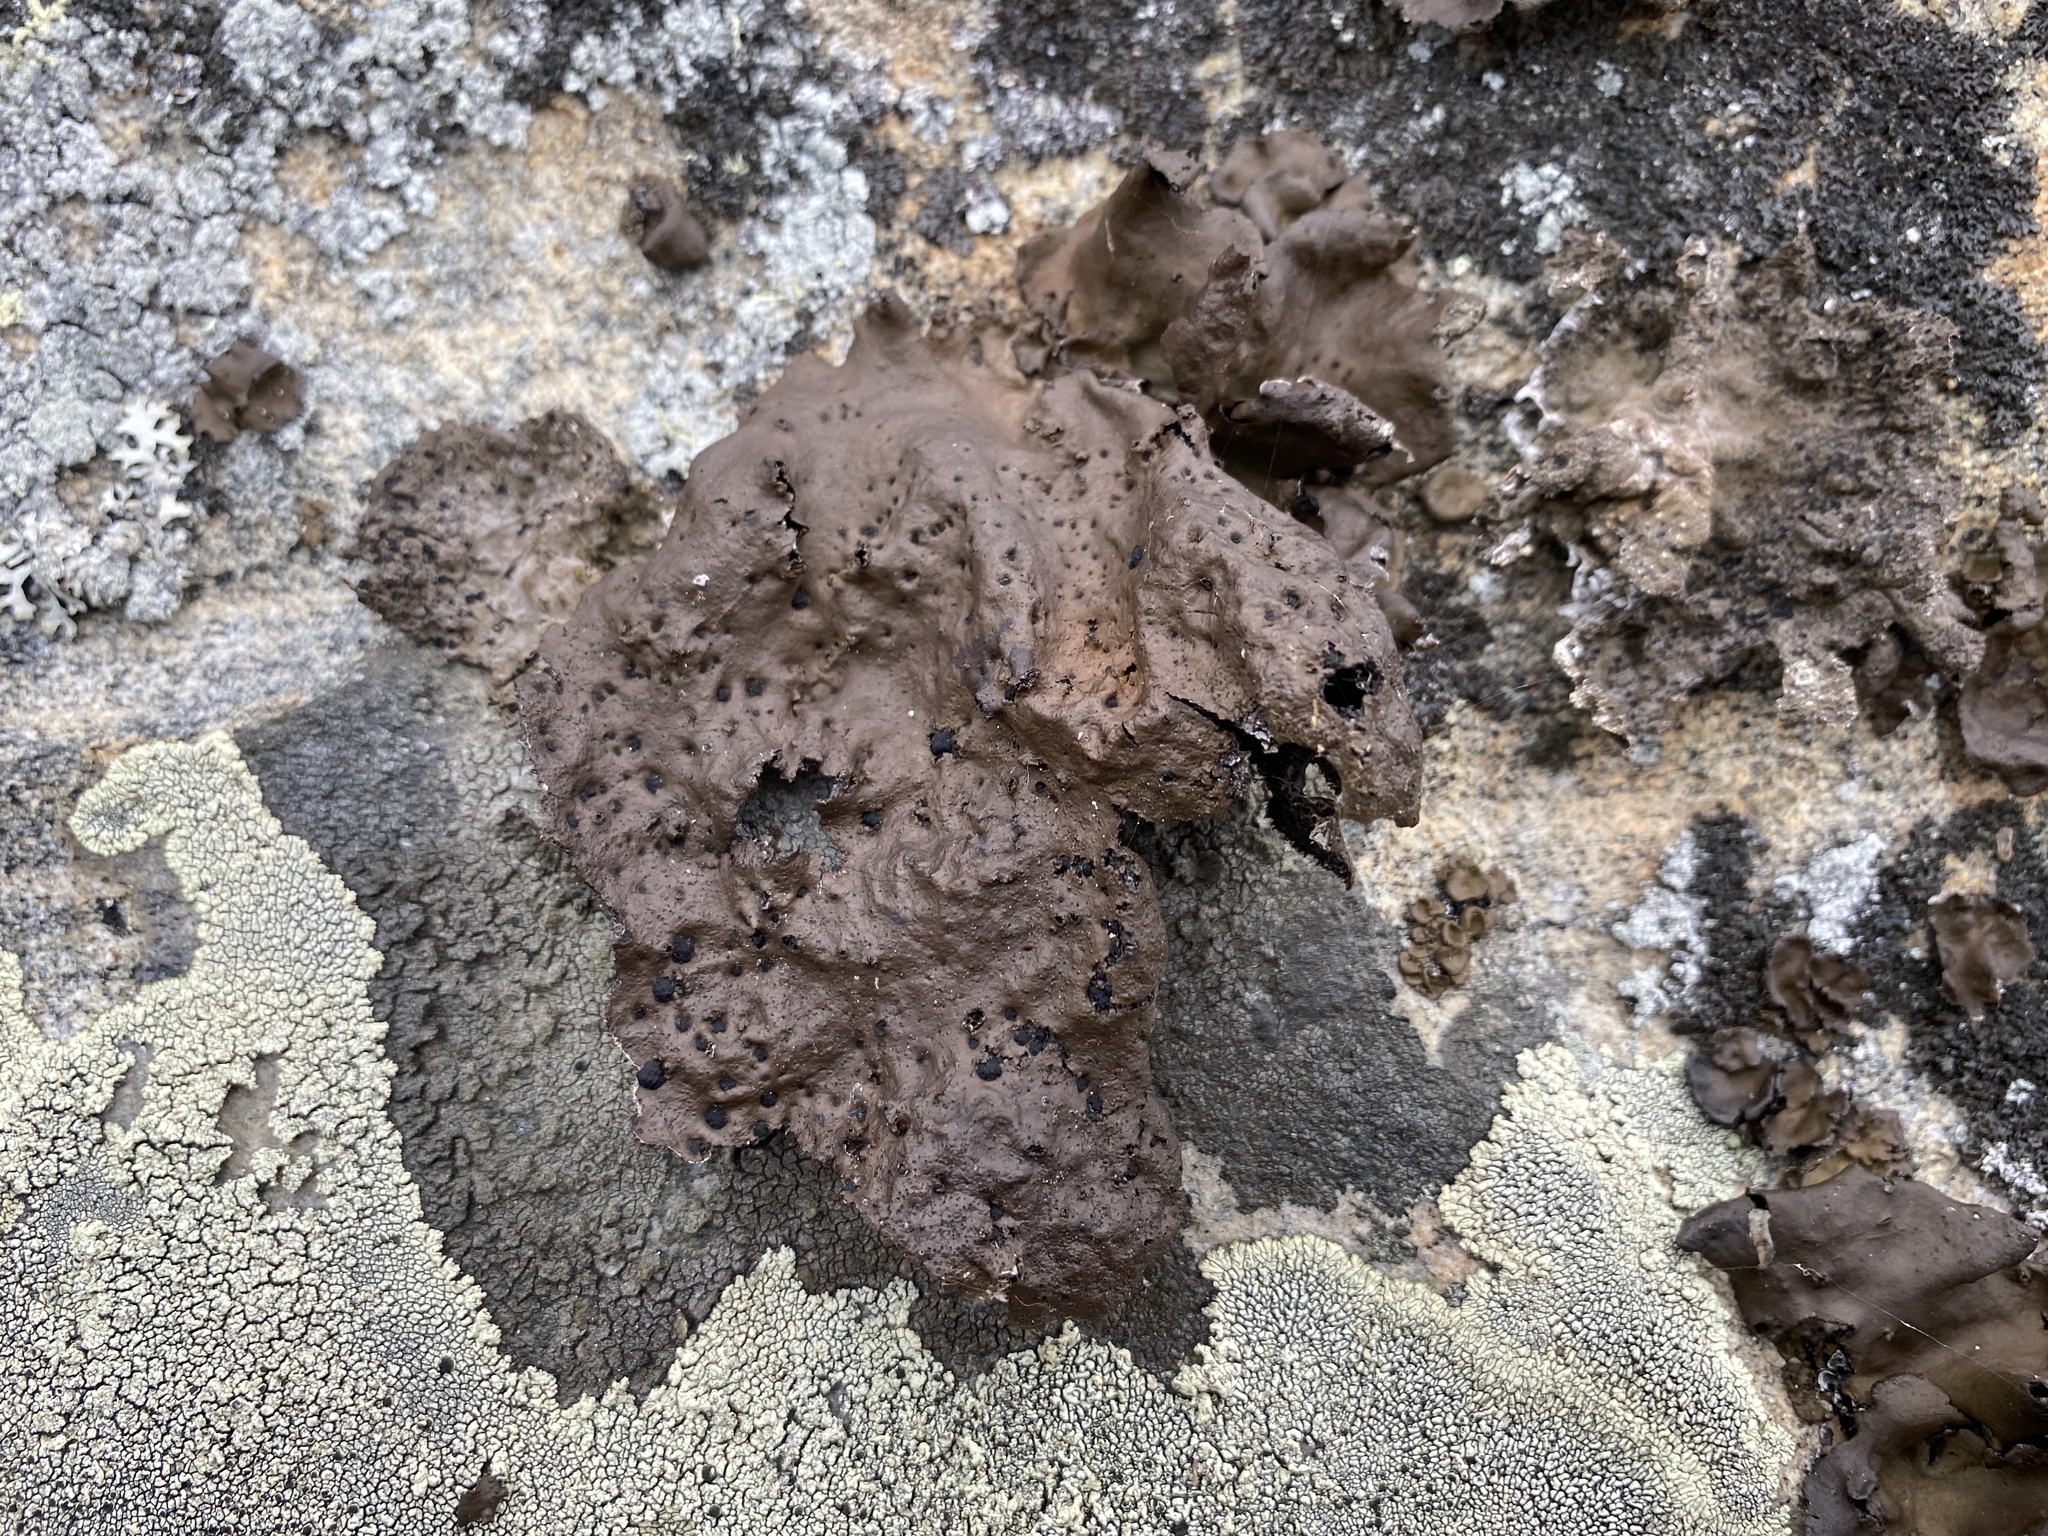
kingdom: Fungi
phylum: Ascomycota
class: Lecanoromycetes
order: Umbilicariales
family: Umbilicariaceae
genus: Umbilicaria
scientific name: Umbilicaria muhlenbergii
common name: Lesser rocktripe
